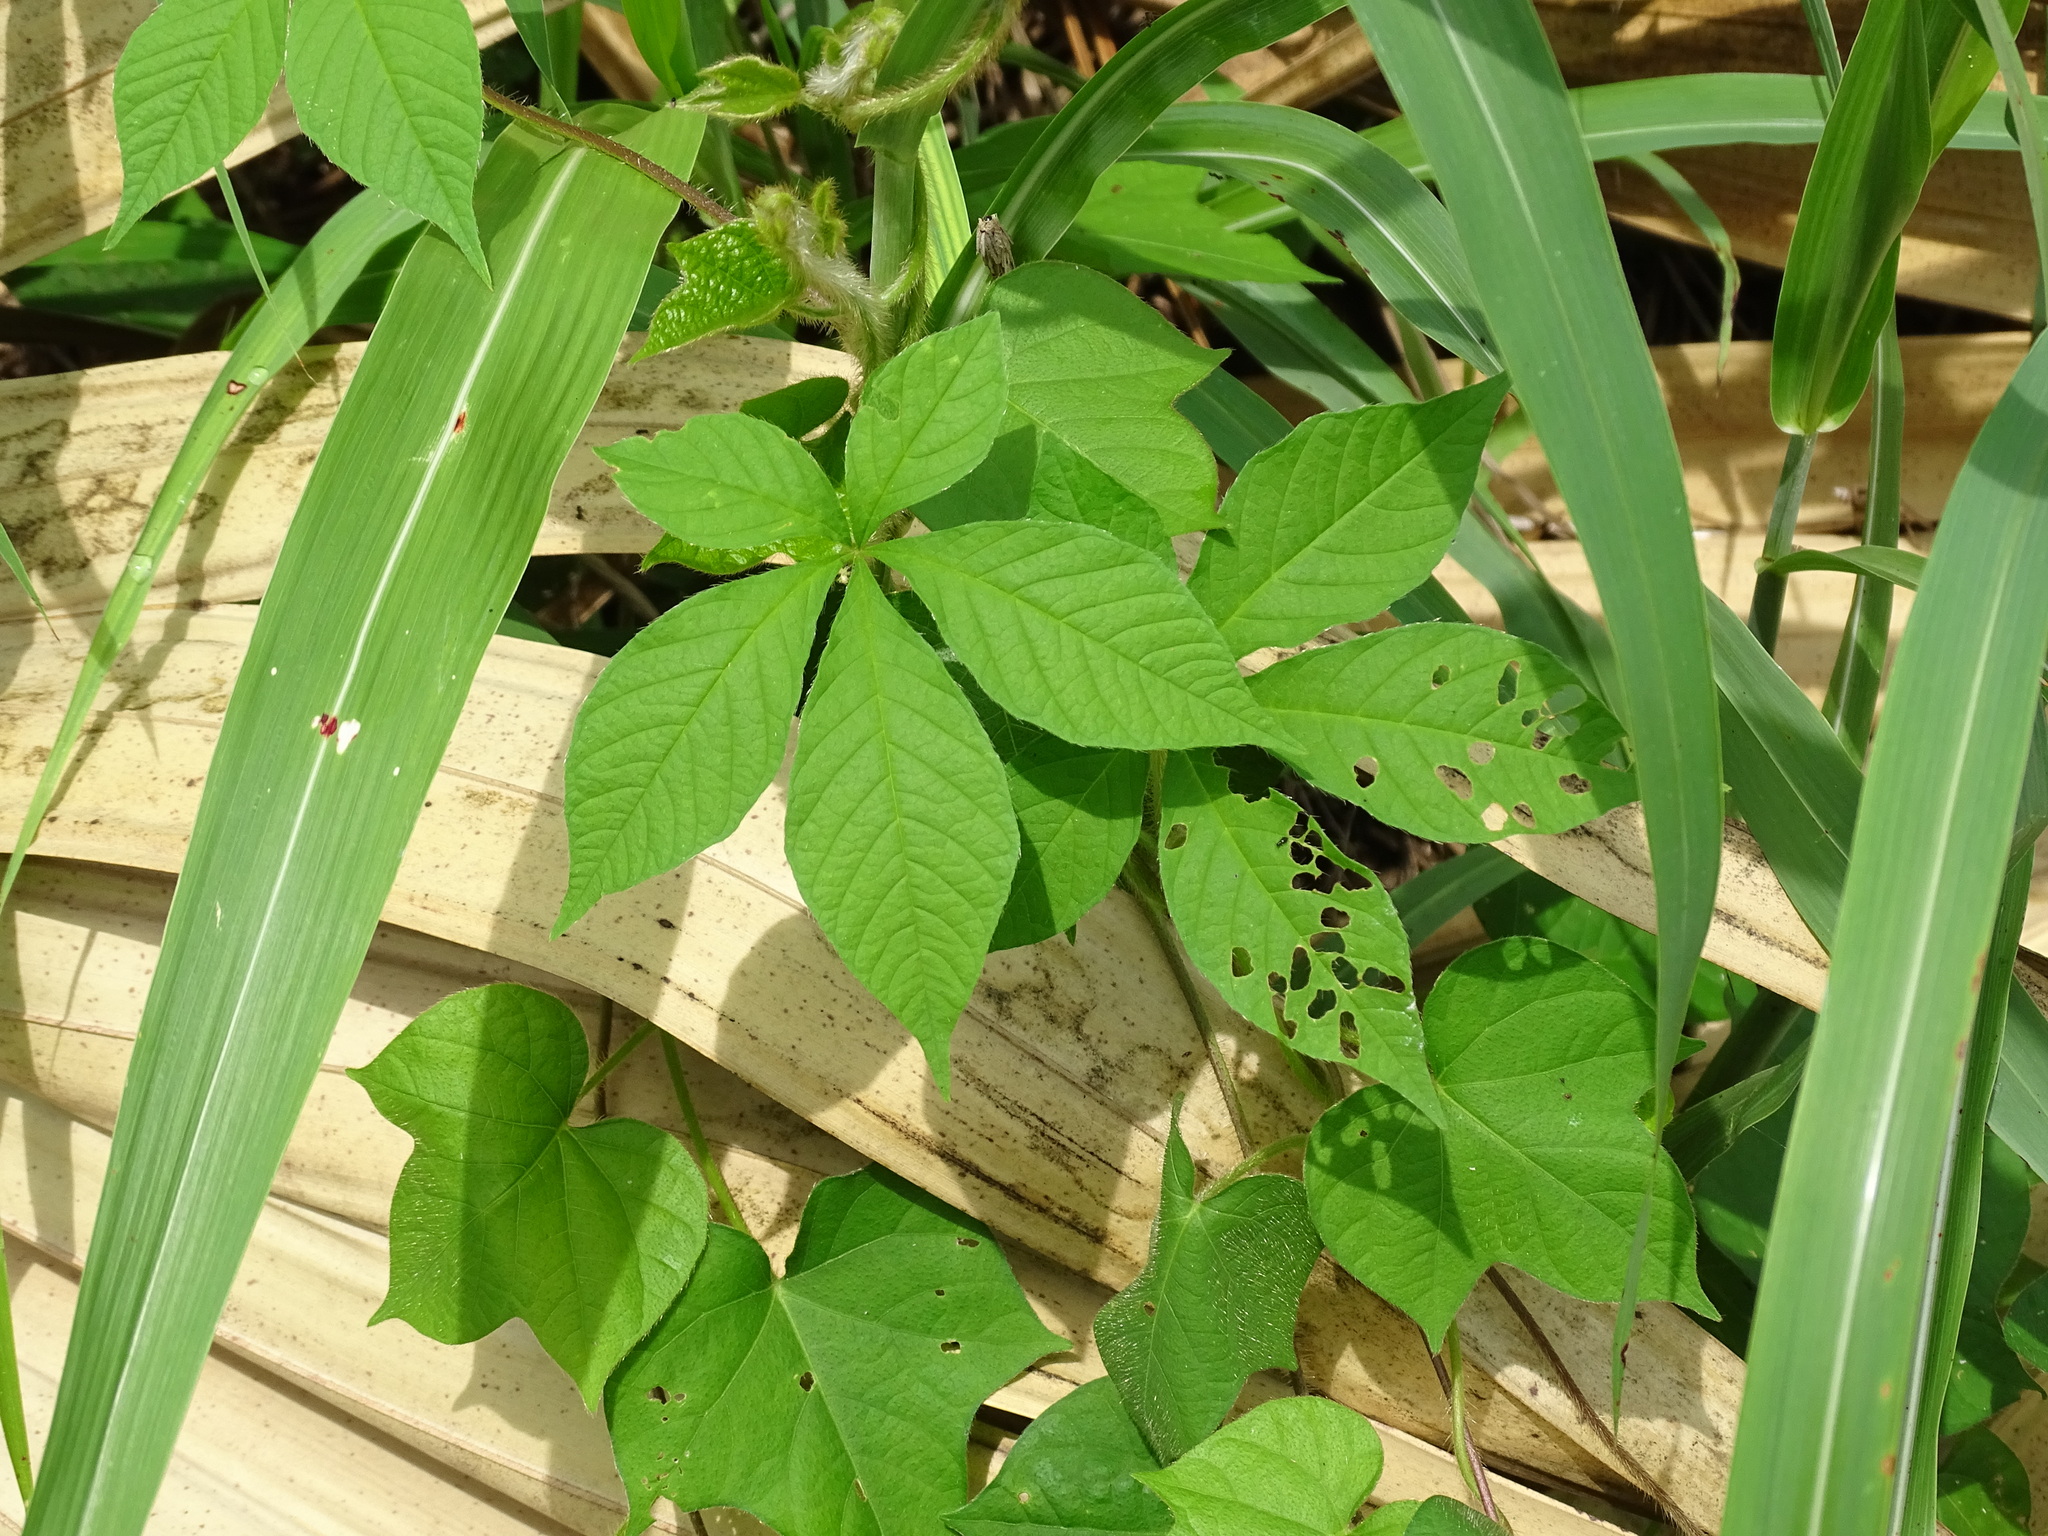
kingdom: Plantae
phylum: Tracheophyta
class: Magnoliopsida
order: Solanales
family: Convolvulaceae
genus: Distimake
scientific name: Distimake aegyptius
